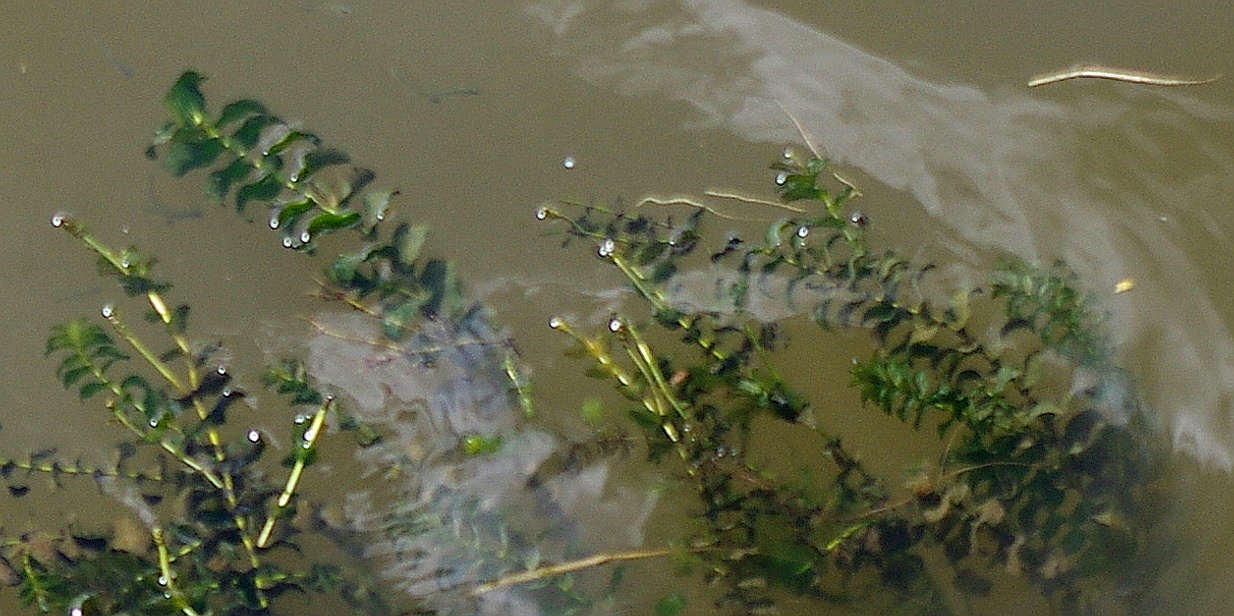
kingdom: Plantae
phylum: Tracheophyta
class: Liliopsida
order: Alismatales
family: Potamogetonaceae
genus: Potamogeton
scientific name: Potamogeton perfoliatus
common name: Perfoliate pondweed
